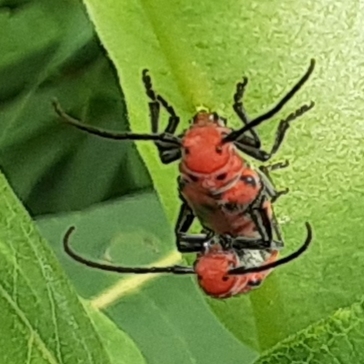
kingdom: Animalia
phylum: Arthropoda
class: Insecta
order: Coleoptera
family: Cerambycidae
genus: Tetraopes
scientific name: Tetraopes tetrophthalmus
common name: Red milkweed beetle
